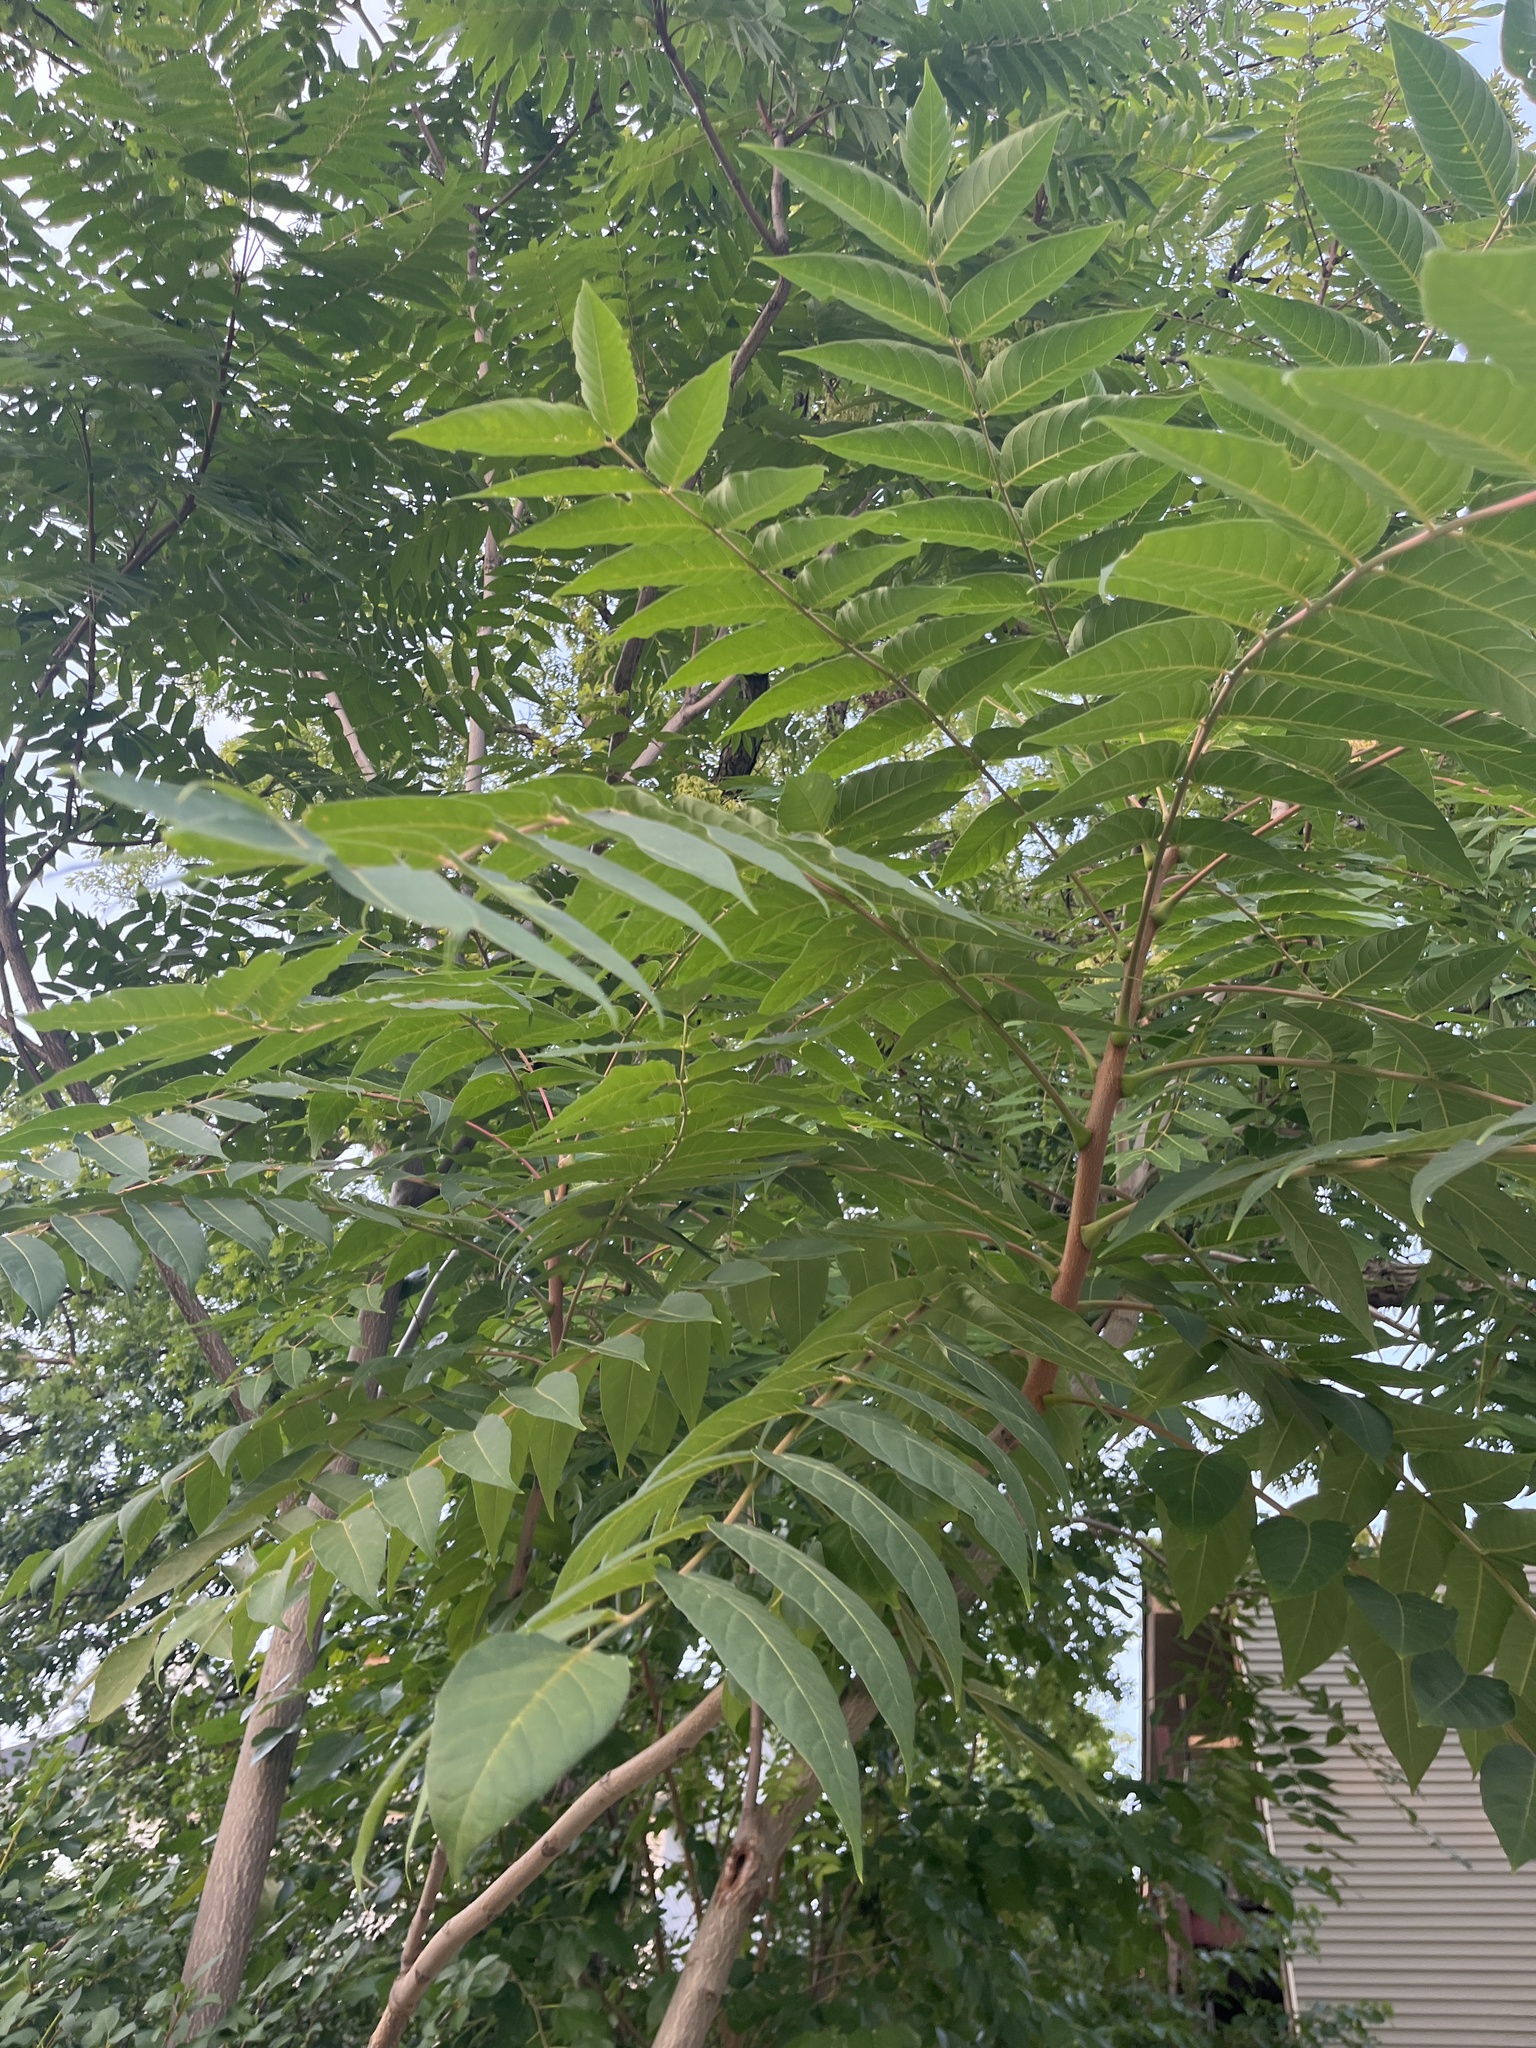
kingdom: Plantae
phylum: Tracheophyta
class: Magnoliopsida
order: Sapindales
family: Simaroubaceae
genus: Ailanthus
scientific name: Ailanthus altissima
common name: Tree-of-heaven
